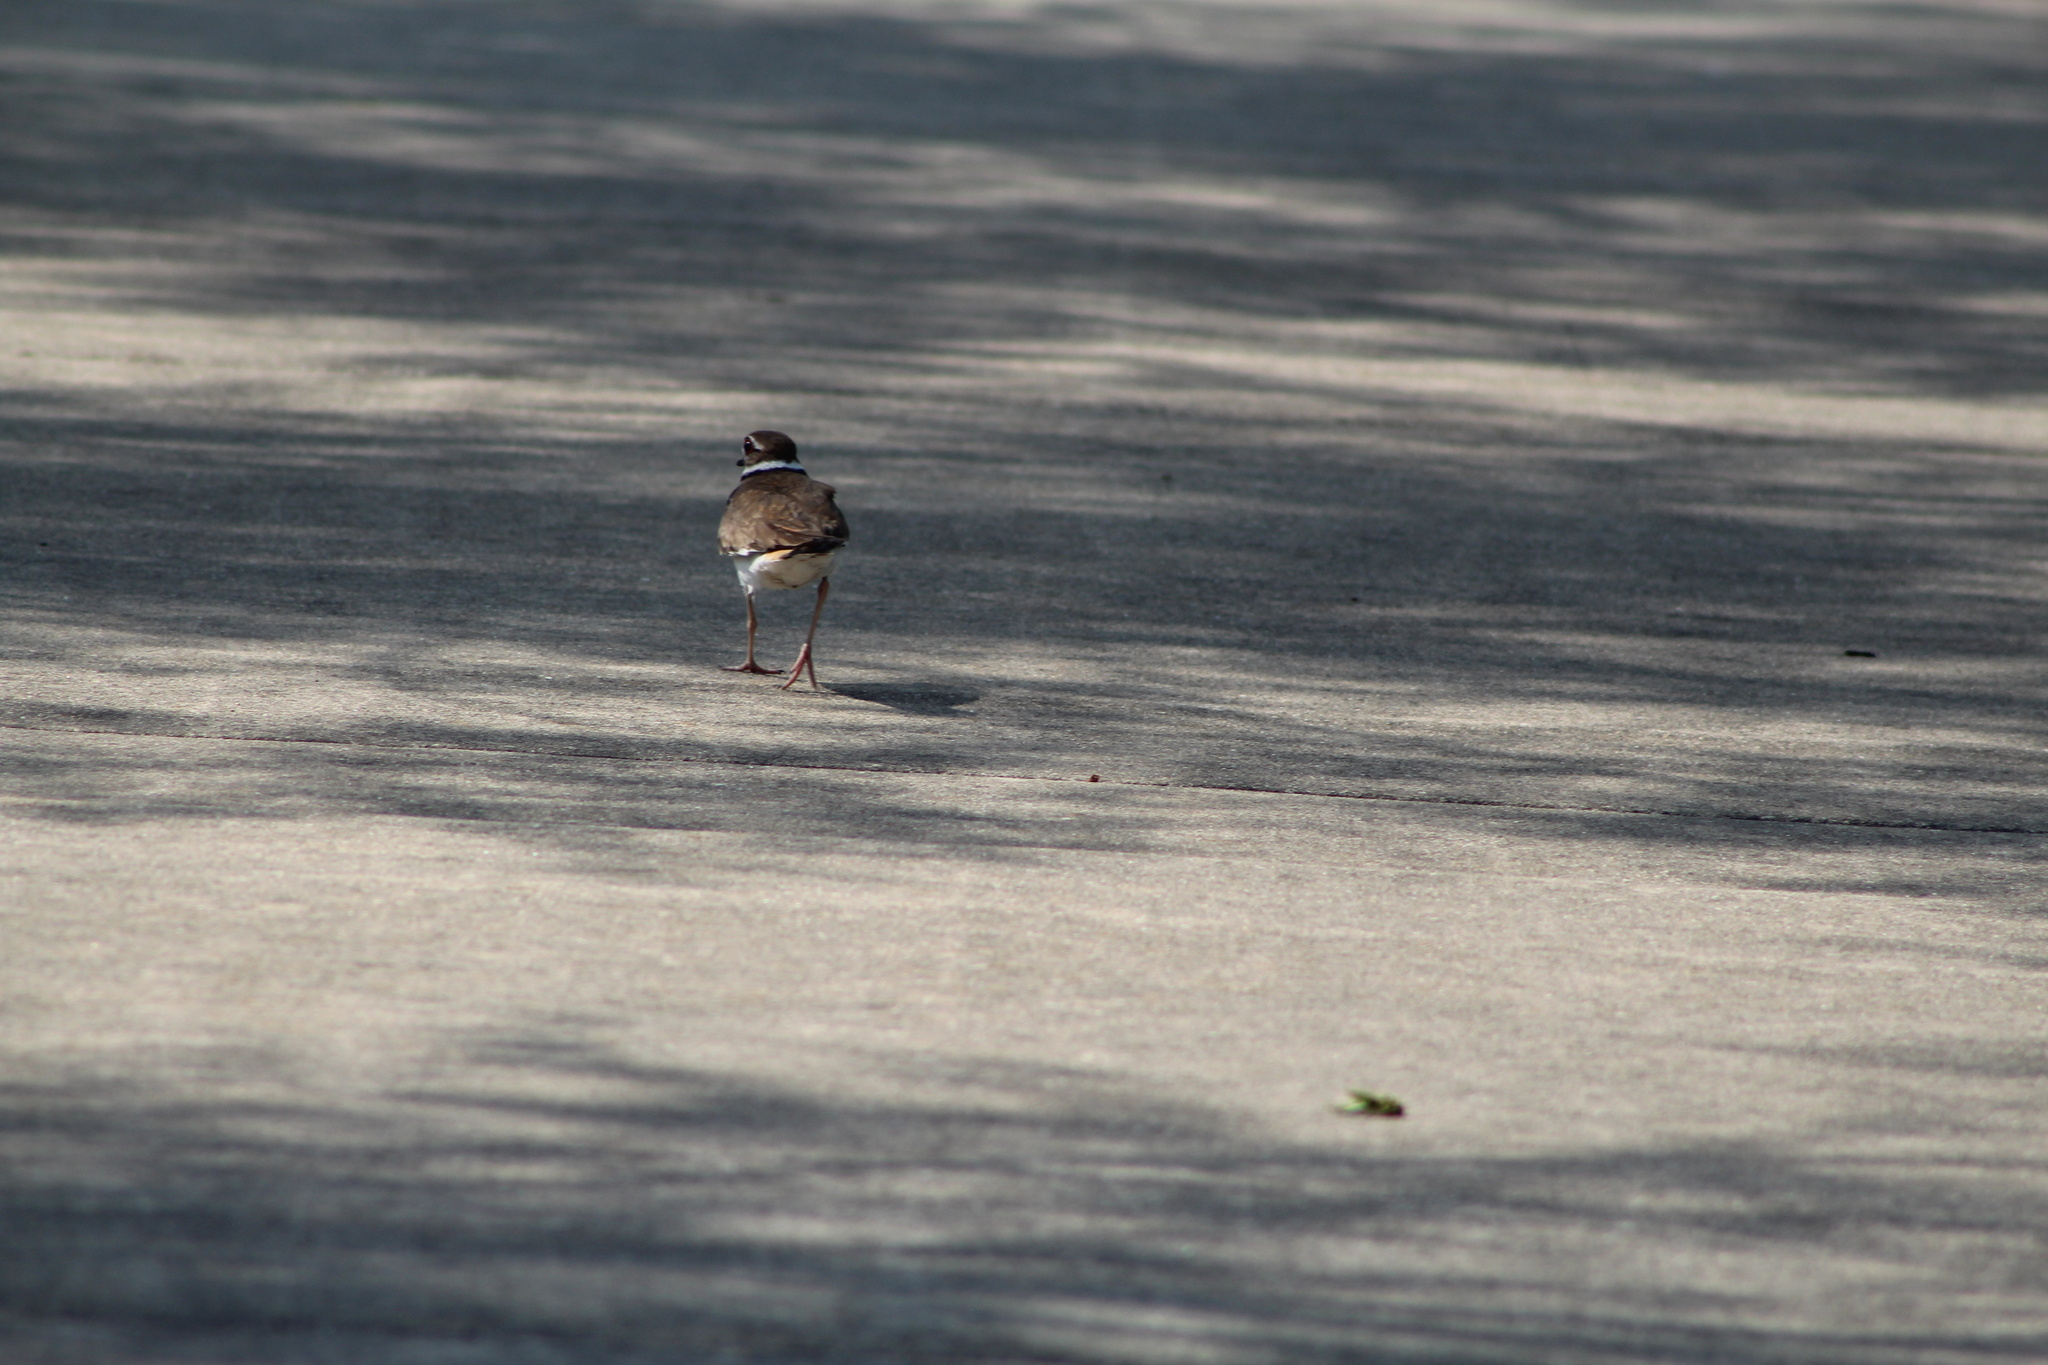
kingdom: Animalia
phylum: Chordata
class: Aves
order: Charadriiformes
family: Charadriidae
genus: Charadrius
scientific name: Charadrius vociferus
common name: Killdeer
